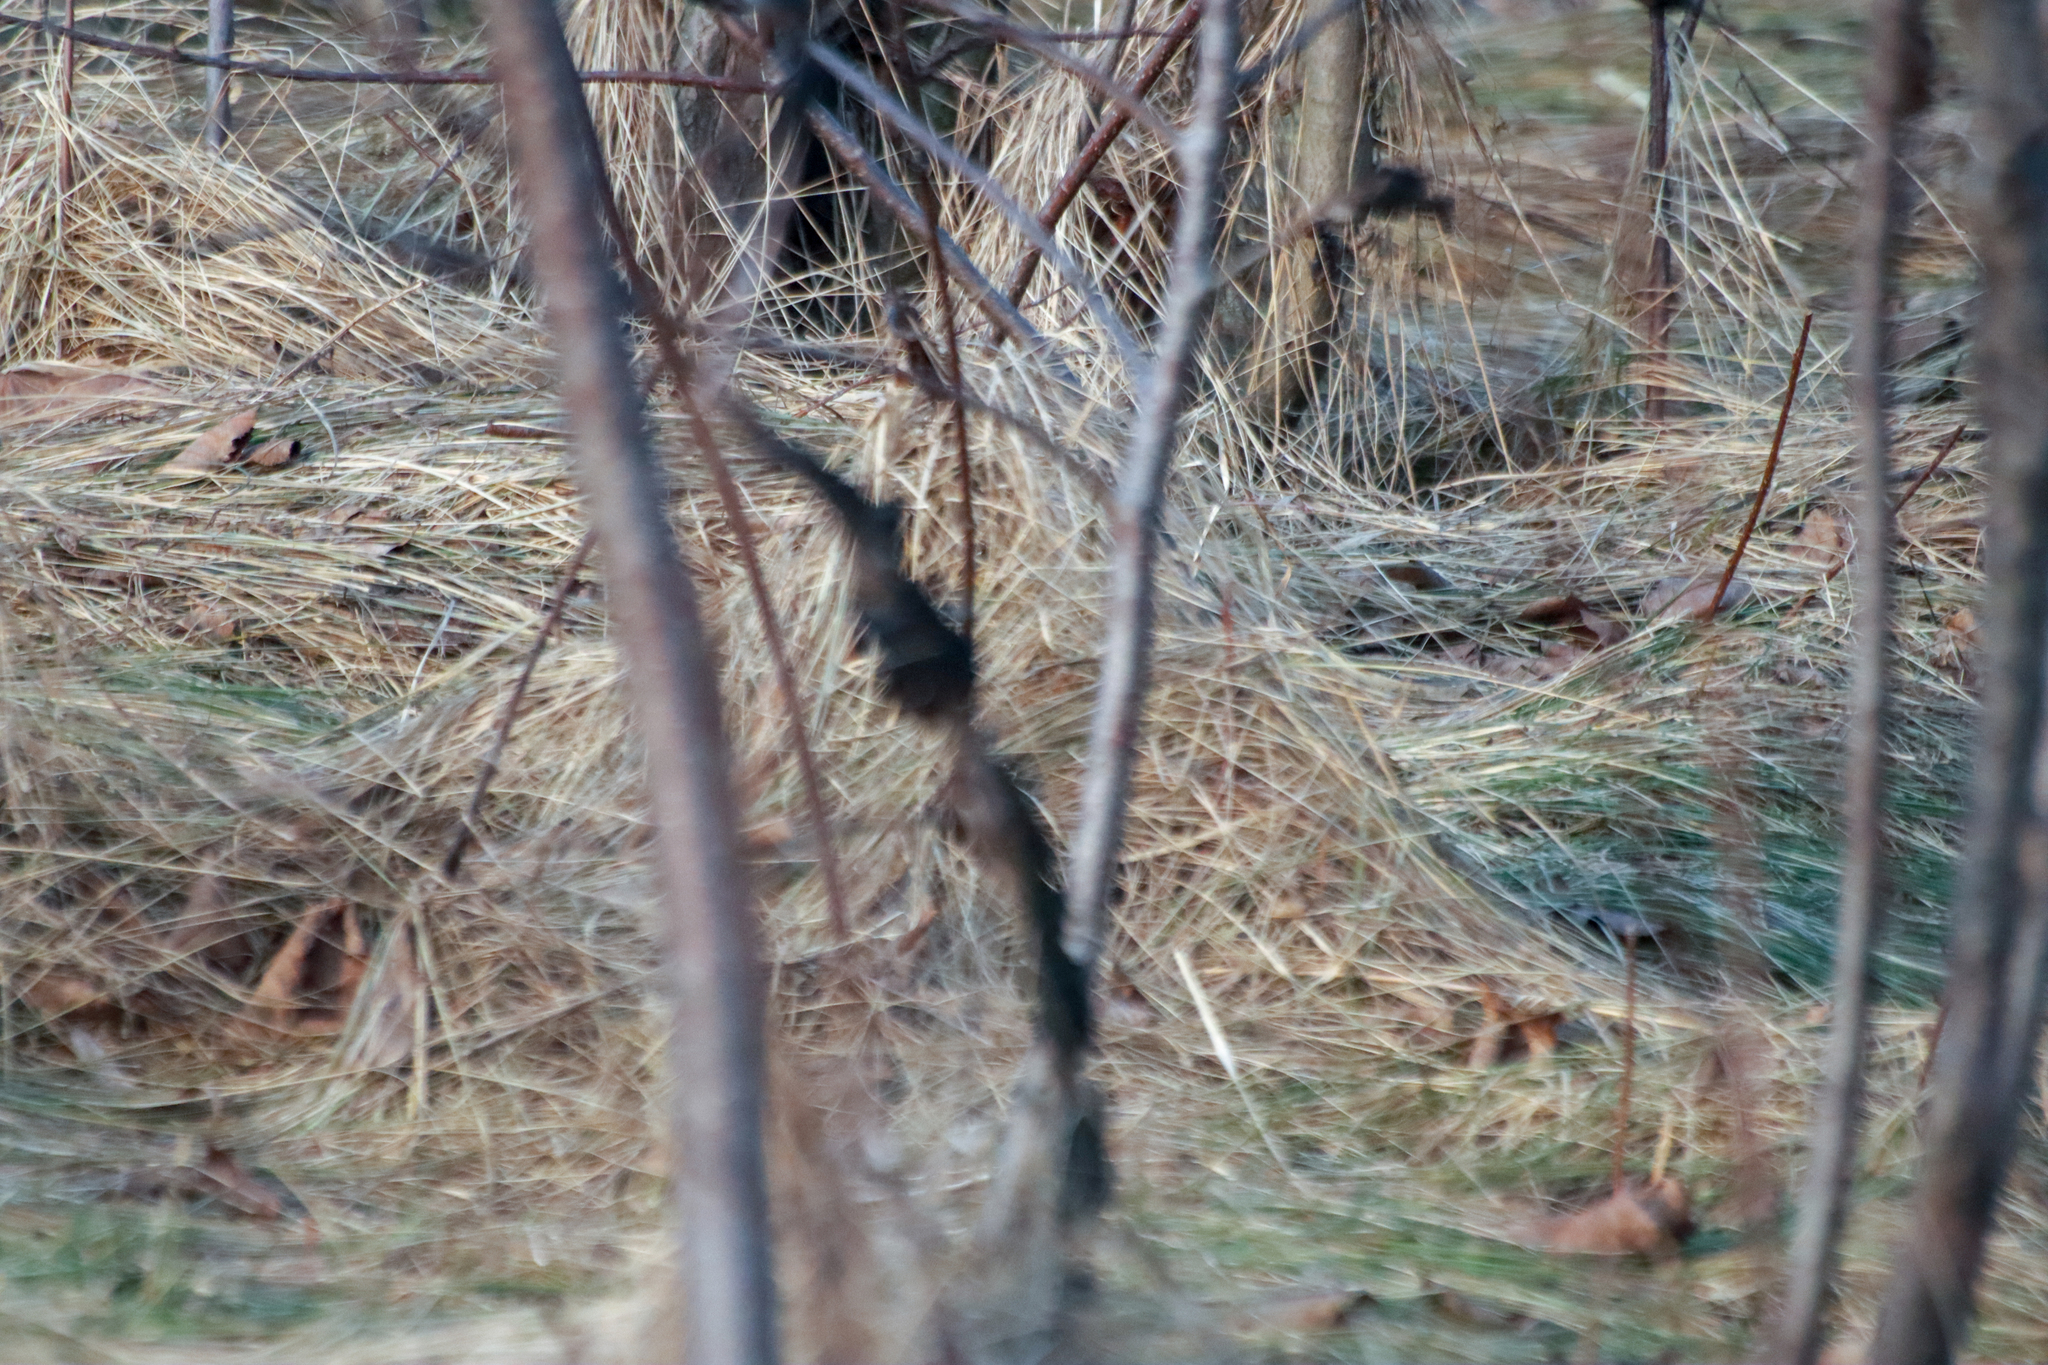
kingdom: Fungi
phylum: Ascomycota
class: Dothideomycetes
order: Venturiales
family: Venturiaceae
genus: Apiosporina
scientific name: Apiosporina morbosa
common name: Black knot
